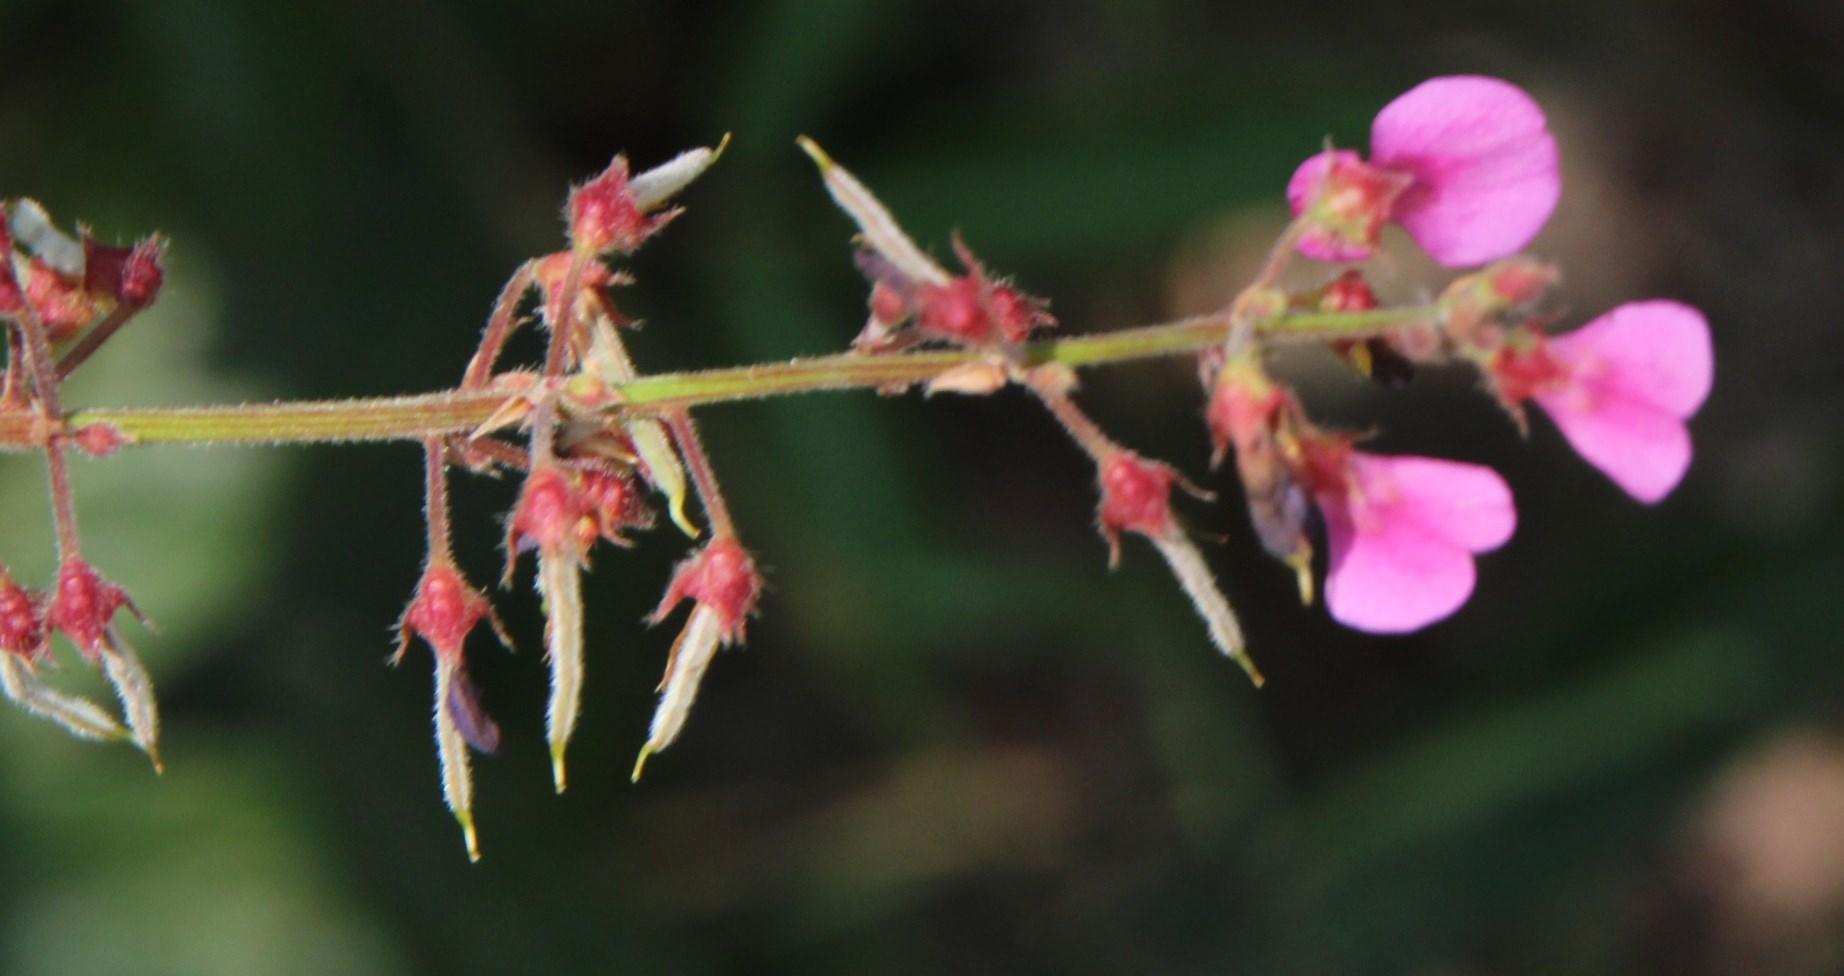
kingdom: Plantae
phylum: Tracheophyta
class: Magnoliopsida
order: Fabales
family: Fabaceae
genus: Desmodium
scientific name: Desmodium incanum
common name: Tickclover
